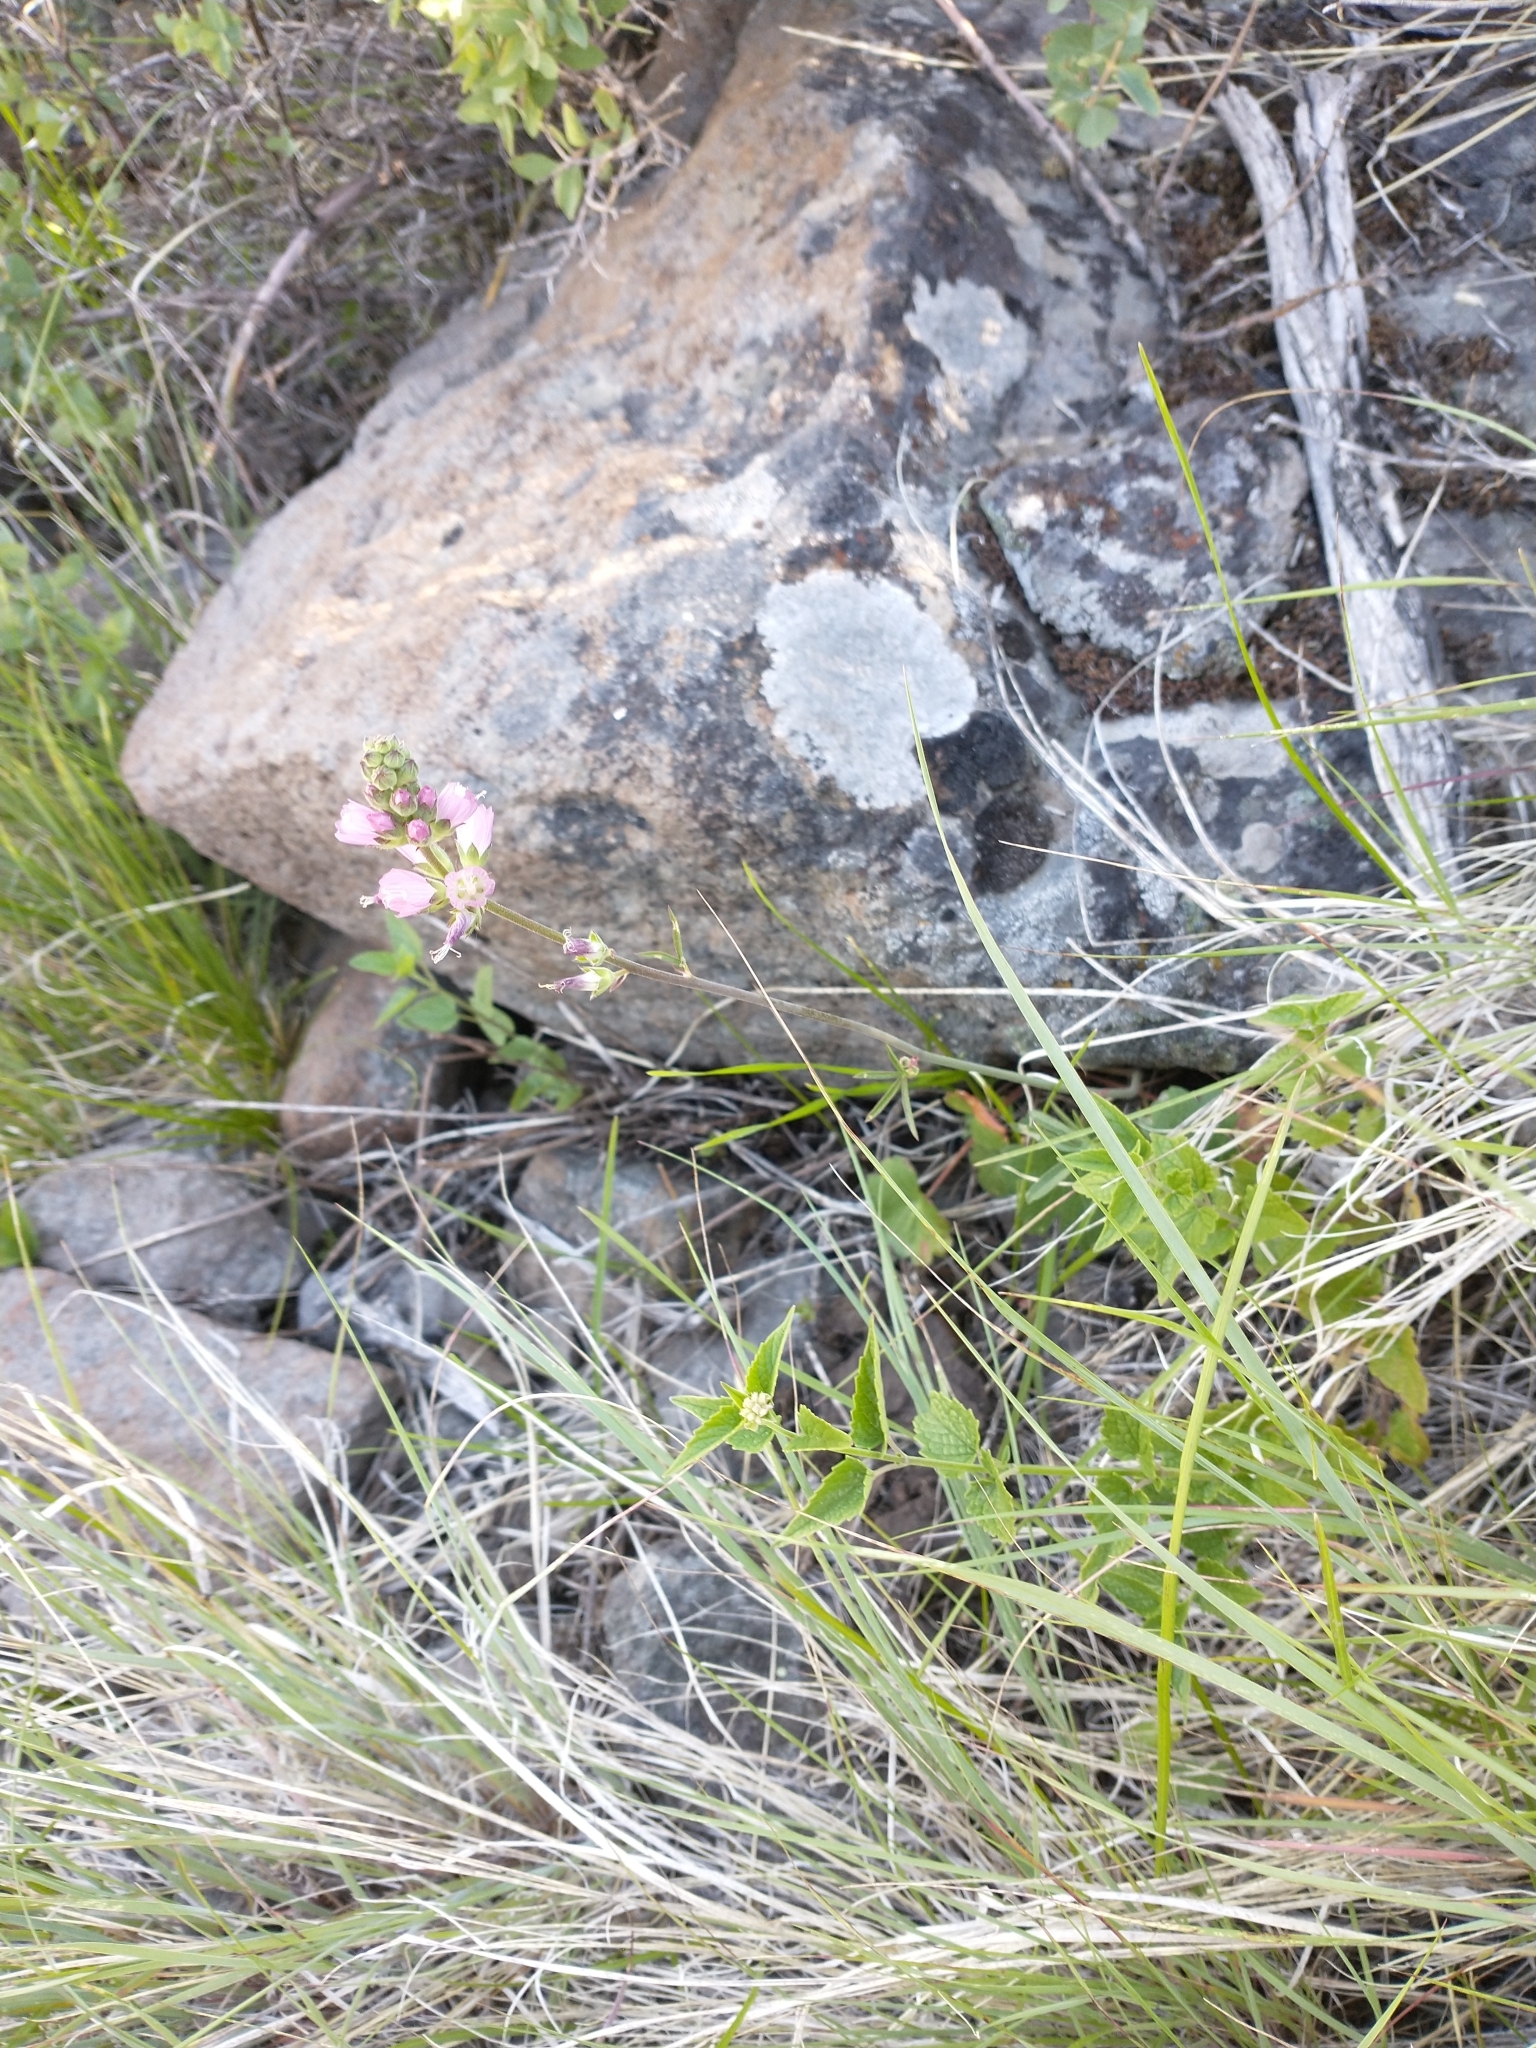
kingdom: Plantae
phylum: Tracheophyta
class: Magnoliopsida
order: Malvales
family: Malvaceae
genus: Sidalcea
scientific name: Sidalcea oregana
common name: Oregon checker-mallow
